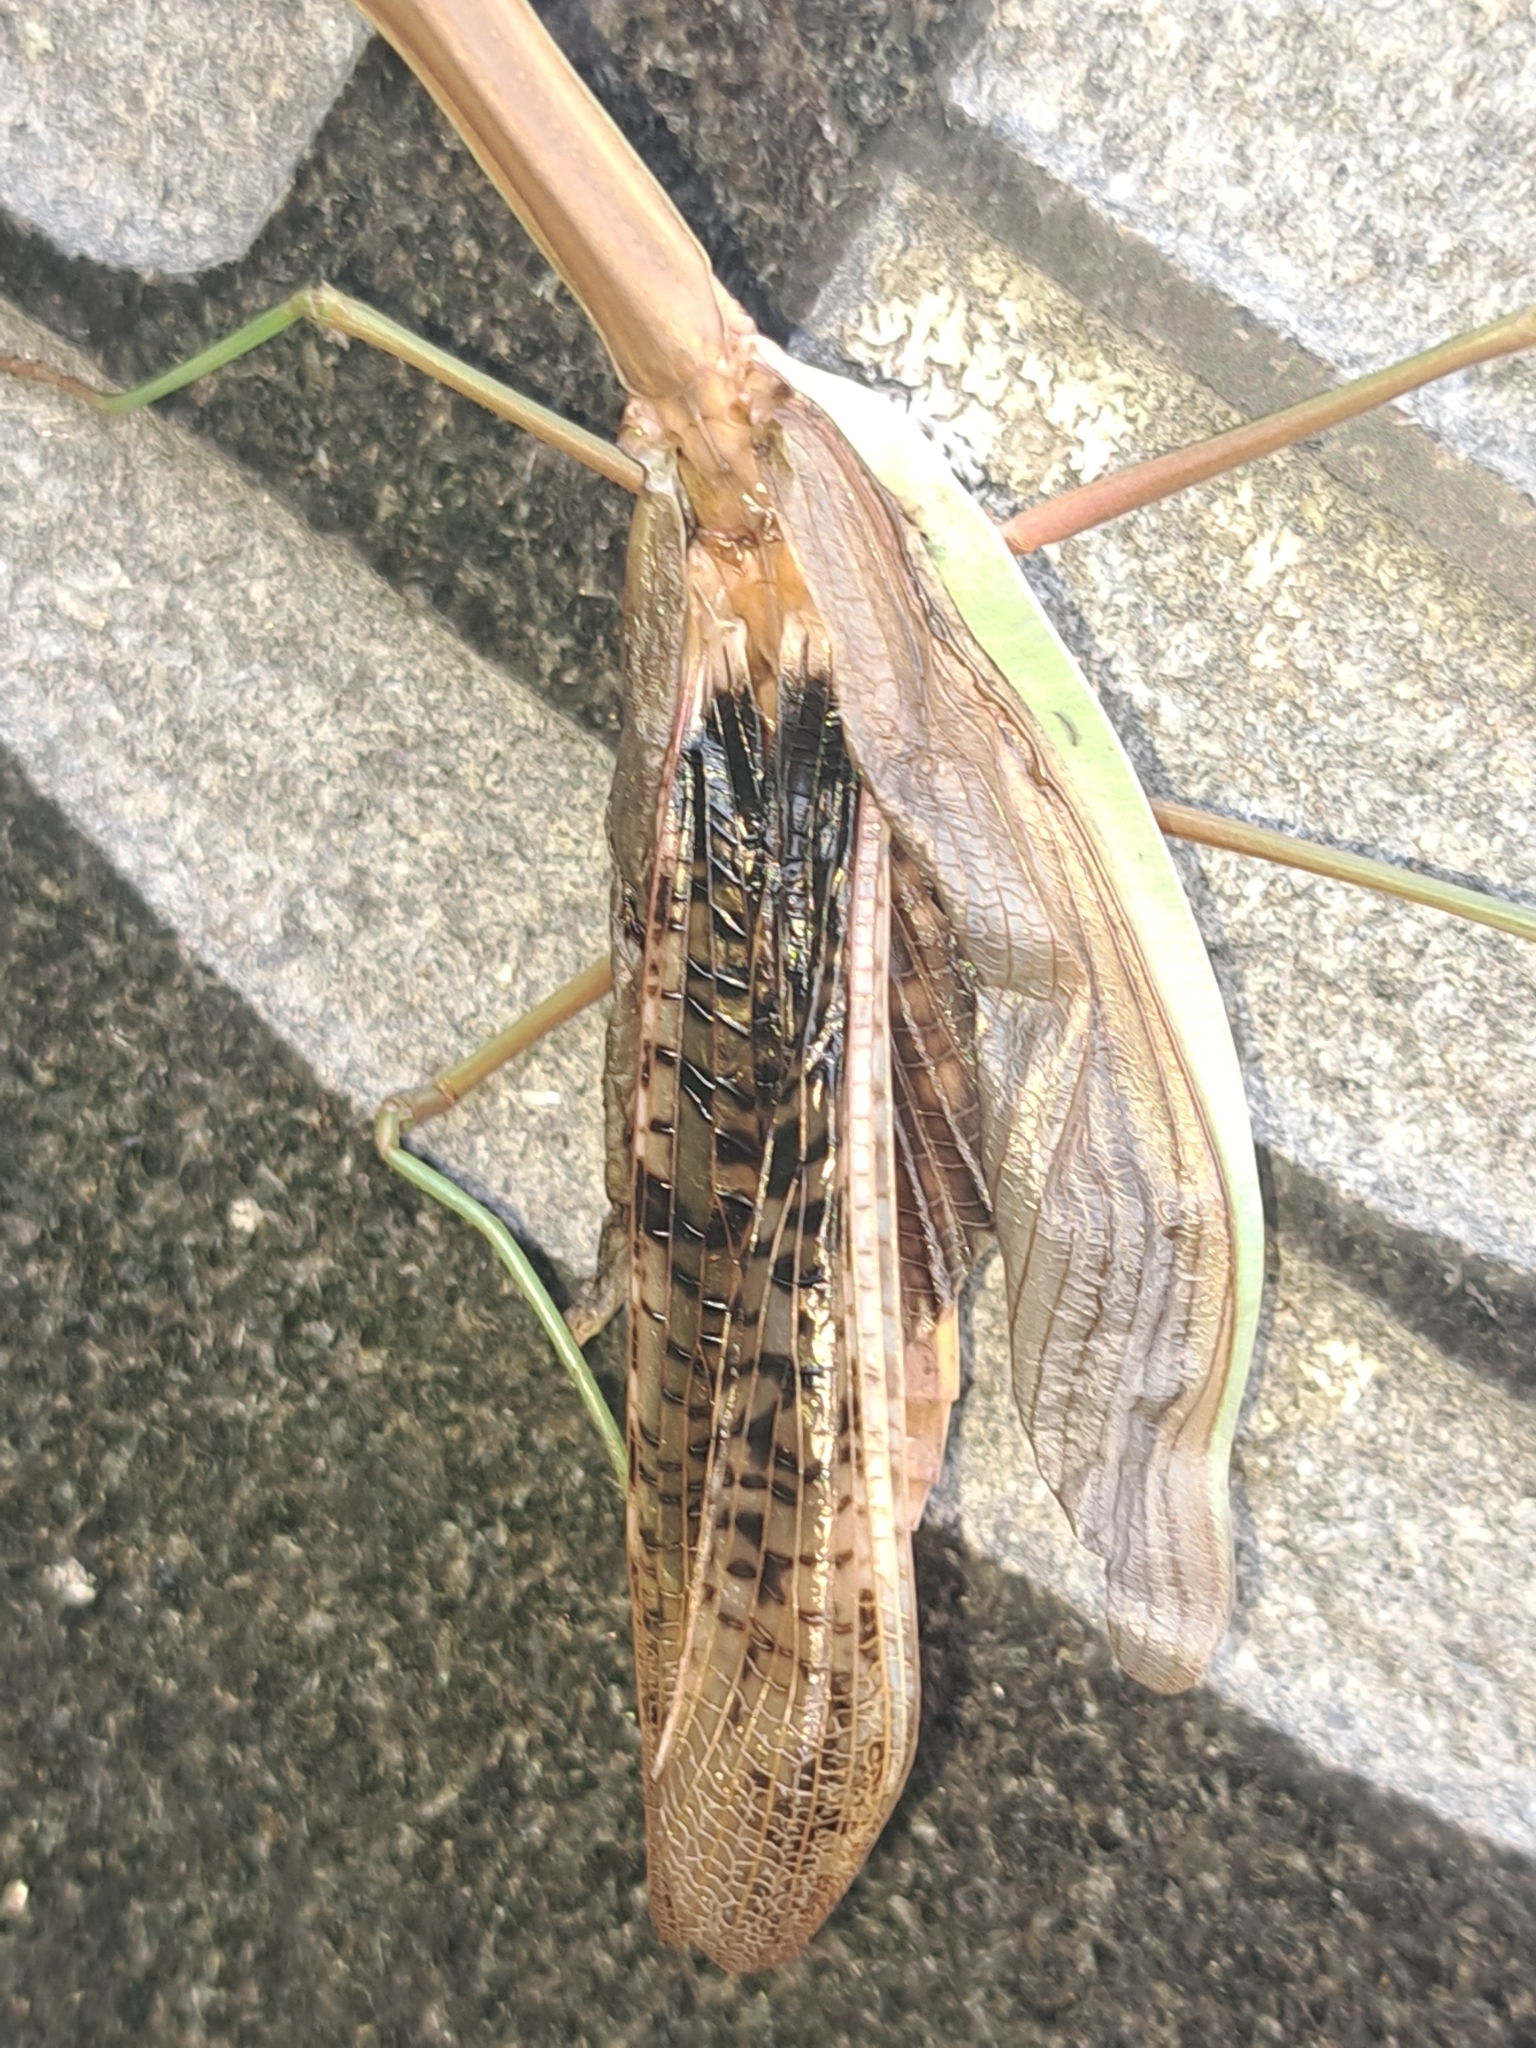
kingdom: Animalia
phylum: Arthropoda
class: Insecta
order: Mantodea
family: Mantidae
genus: Tenodera
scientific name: Tenodera sinensis
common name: Chinese mantis
